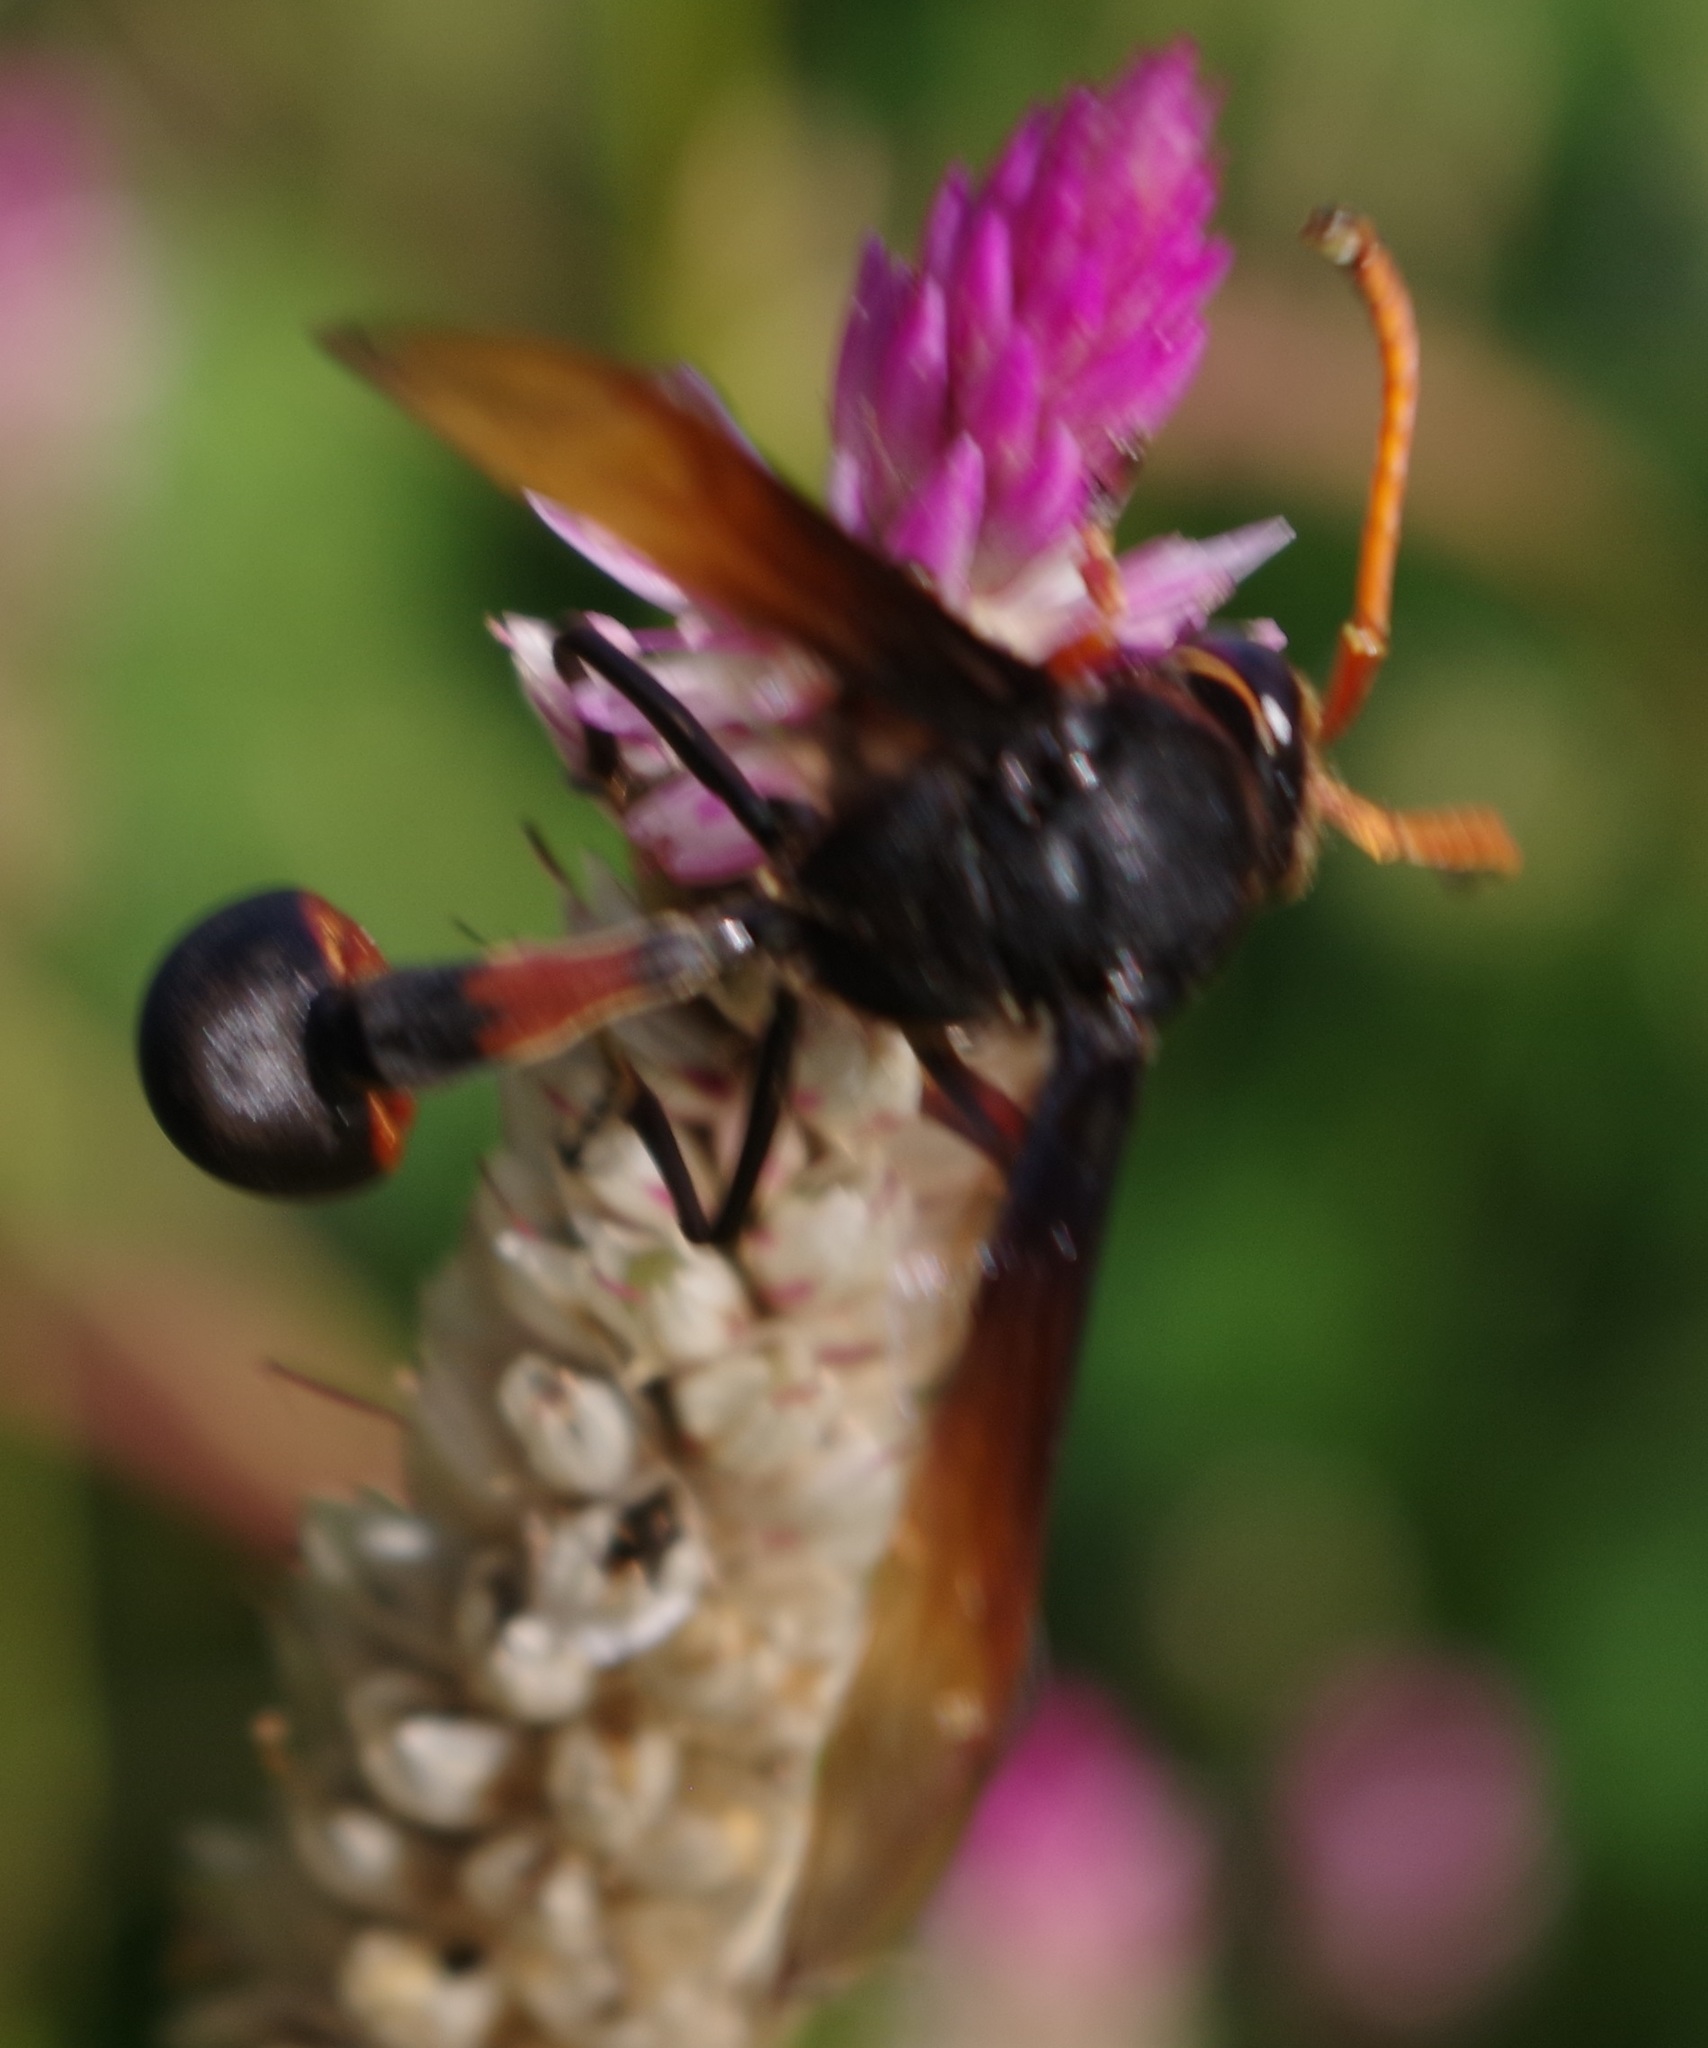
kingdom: Animalia
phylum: Arthropoda
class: Insecta
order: Hymenoptera
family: Eumenidae
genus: Delta
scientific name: Delta pyriforme
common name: Wasp
